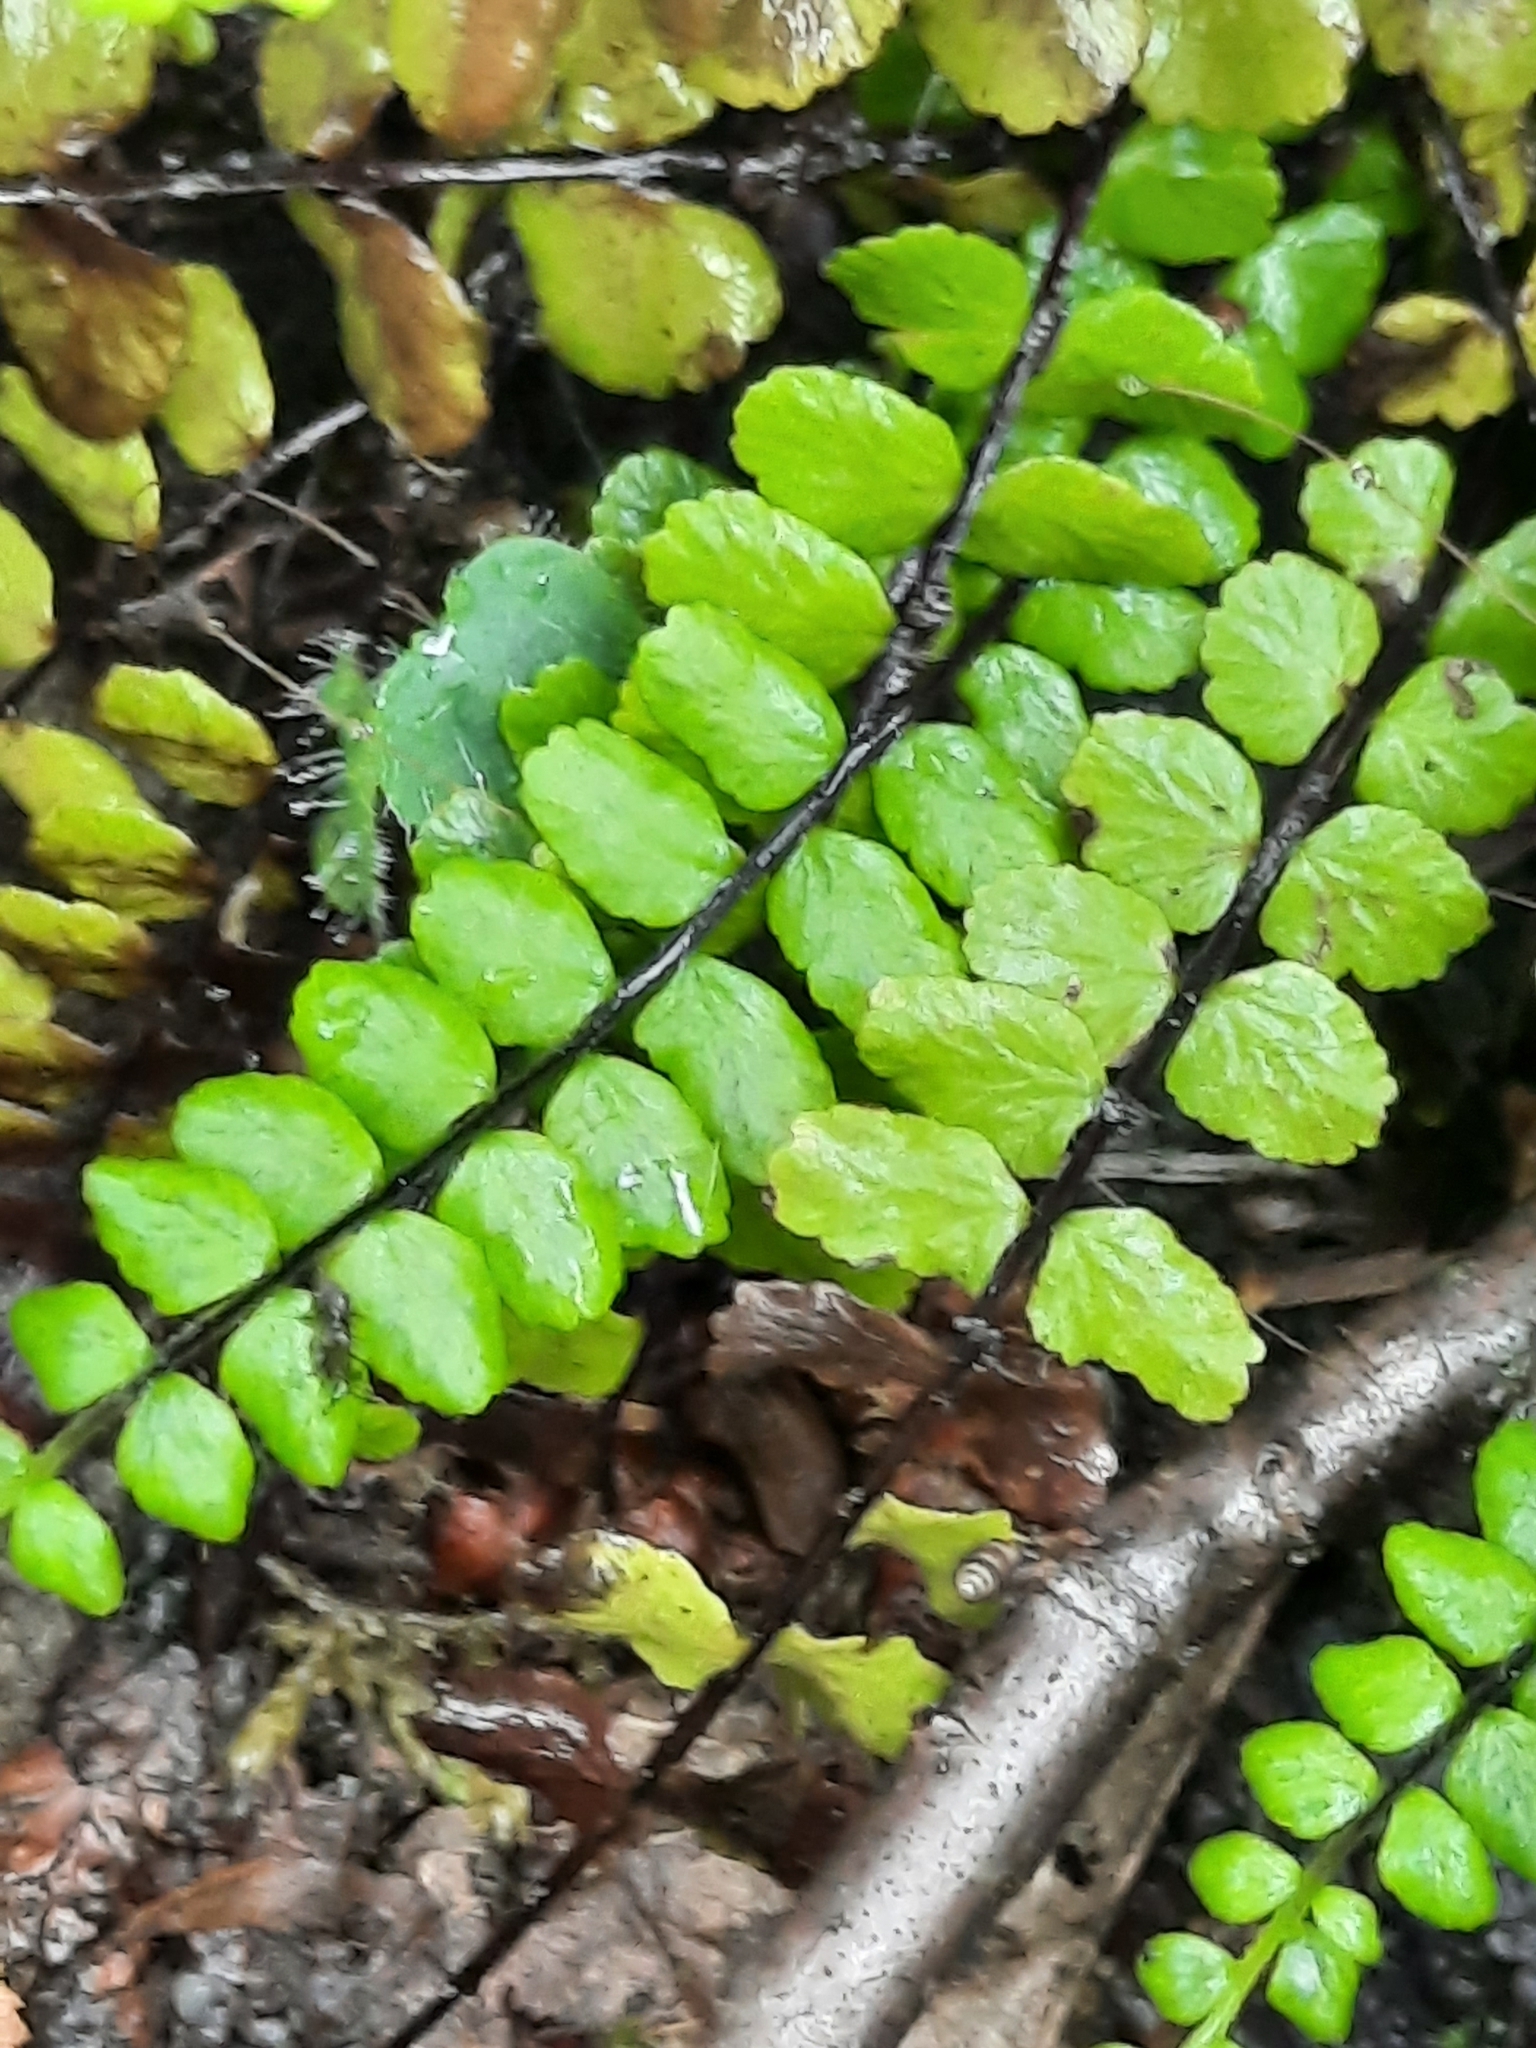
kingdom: Plantae
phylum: Tracheophyta
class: Polypodiopsida
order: Polypodiales
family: Aspleniaceae
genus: Asplenium
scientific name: Asplenium trichomanes
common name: Maidenhair spleenwort
